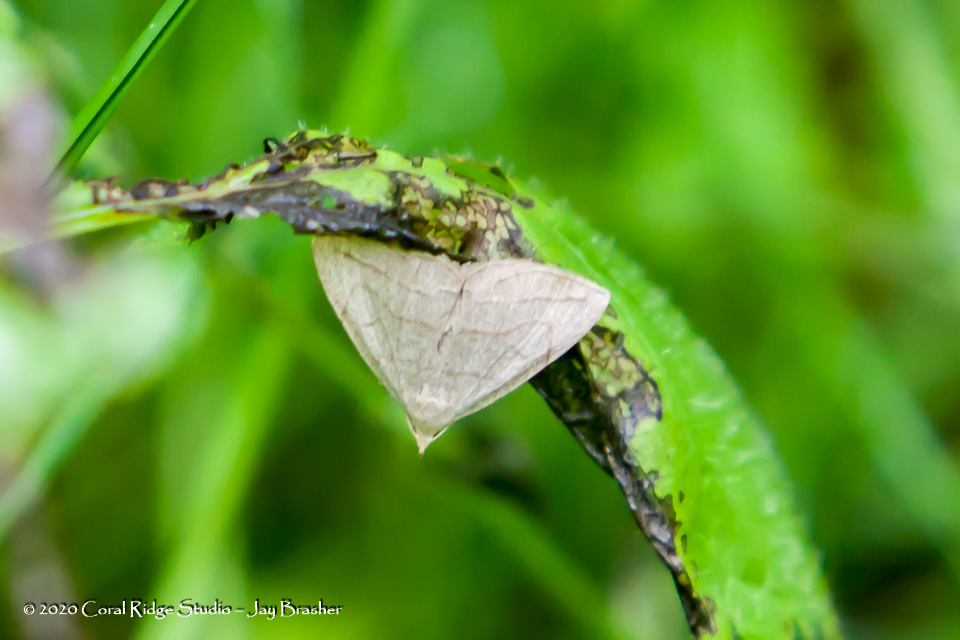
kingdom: Animalia
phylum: Arthropoda
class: Insecta
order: Lepidoptera
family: Erebidae
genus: Zanclognatha
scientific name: Zanclognatha pedipilalis
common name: Grayish fan-foot
